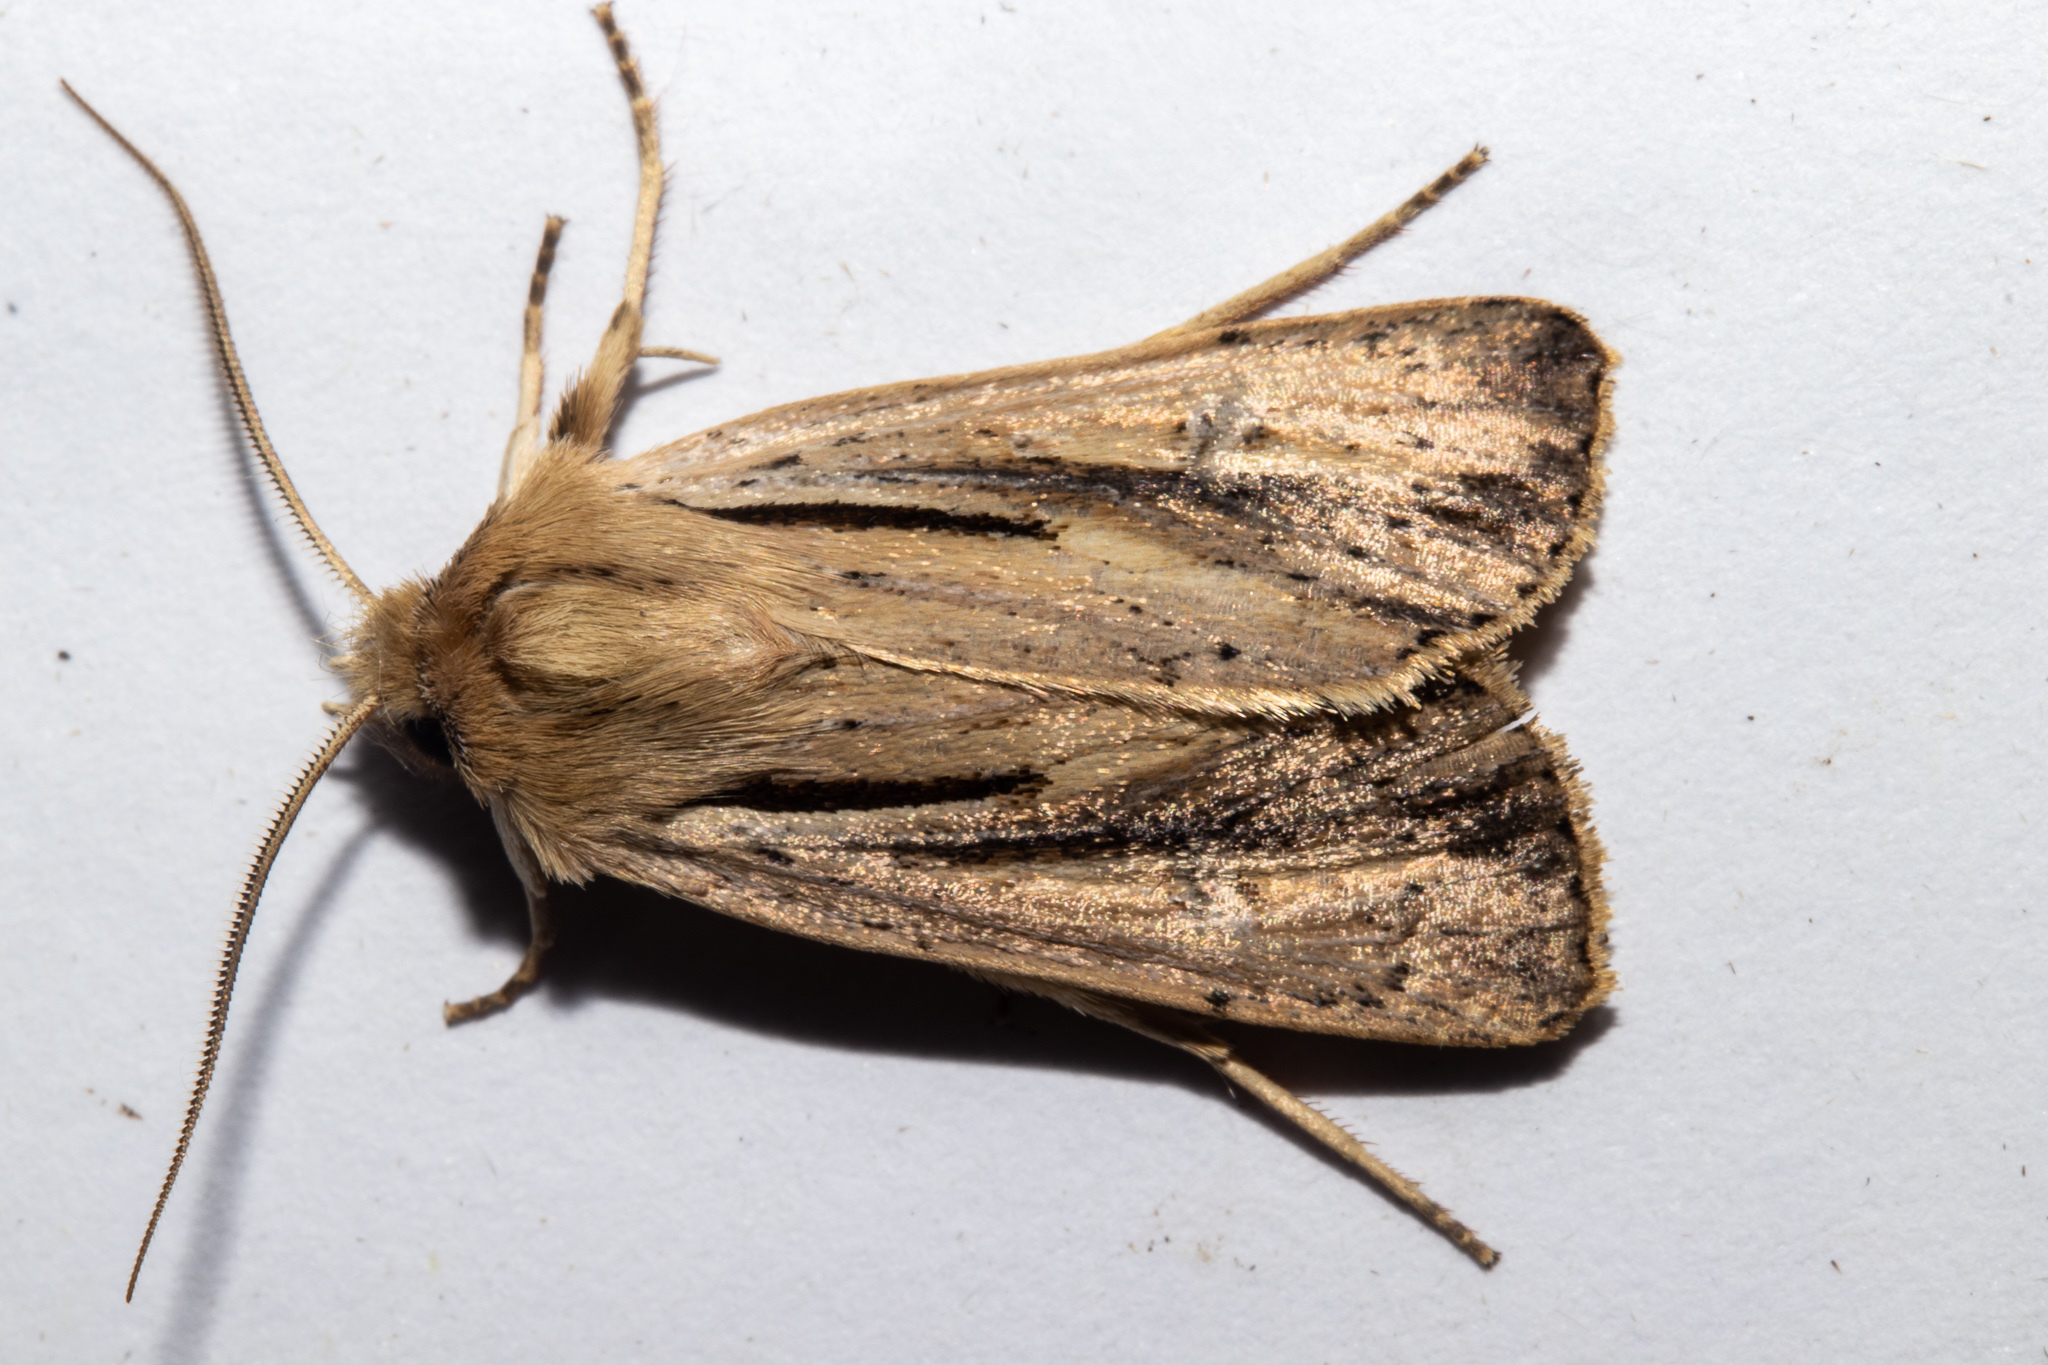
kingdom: Animalia
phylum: Arthropoda
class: Insecta
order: Lepidoptera
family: Noctuidae
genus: Ichneutica
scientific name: Ichneutica propria
